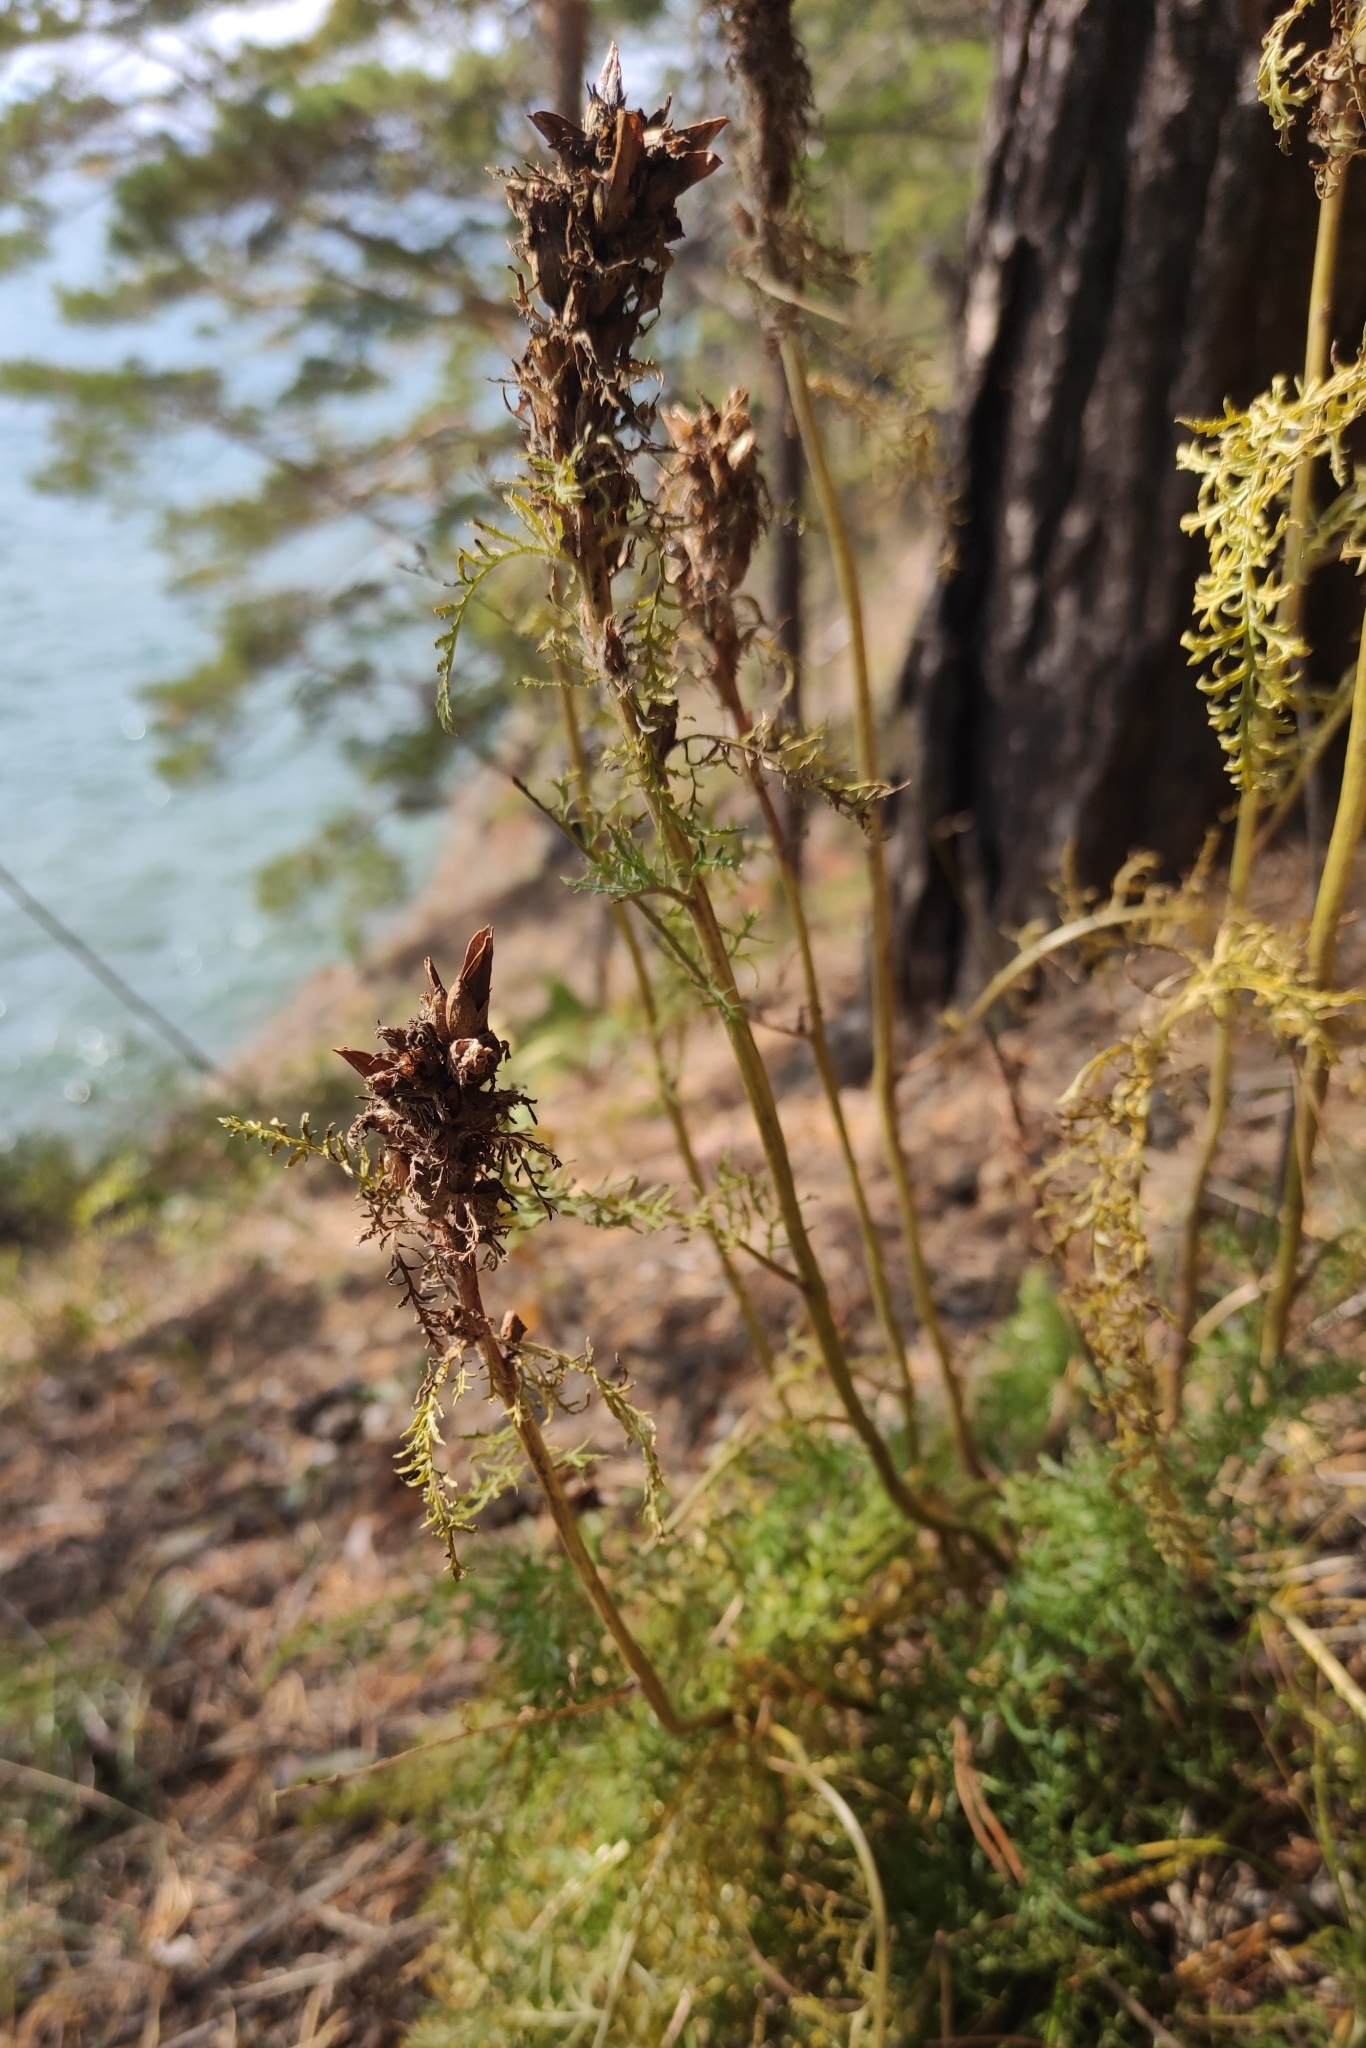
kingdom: Plantae
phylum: Tracheophyta
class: Magnoliopsida
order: Lamiales
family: Orobanchaceae
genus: Pedicularis
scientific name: Pedicularis rubens
